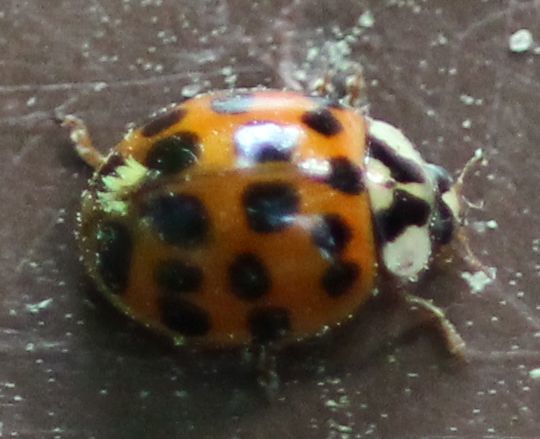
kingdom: Animalia
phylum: Arthropoda
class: Insecta
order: Coleoptera
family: Coccinellidae
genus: Harmonia
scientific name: Harmonia axyridis
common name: Harlequin ladybird
